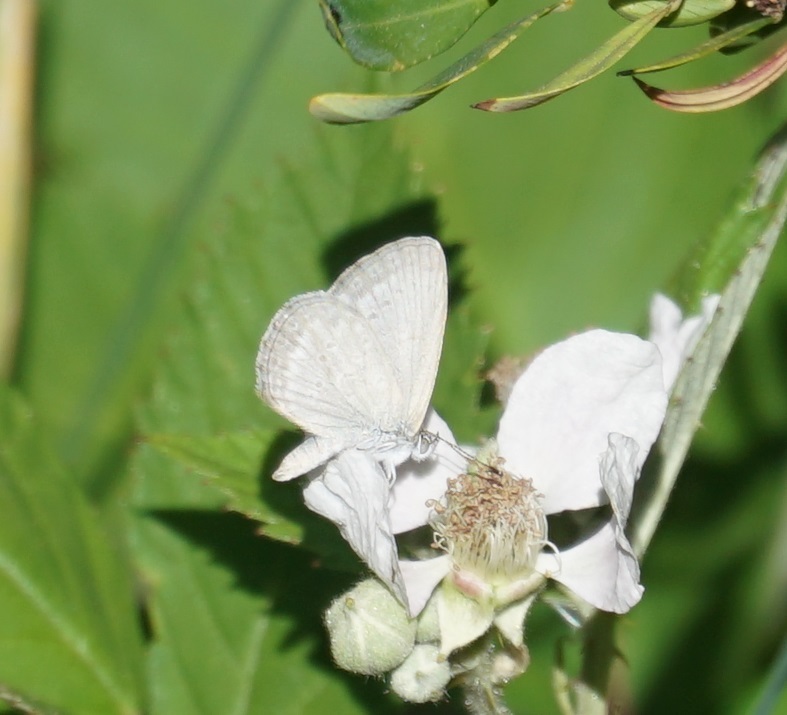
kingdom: Animalia
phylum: Arthropoda
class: Insecta
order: Lepidoptera
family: Lycaenidae
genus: Zizina
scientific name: Zizina otis
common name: Lesser grass blue
